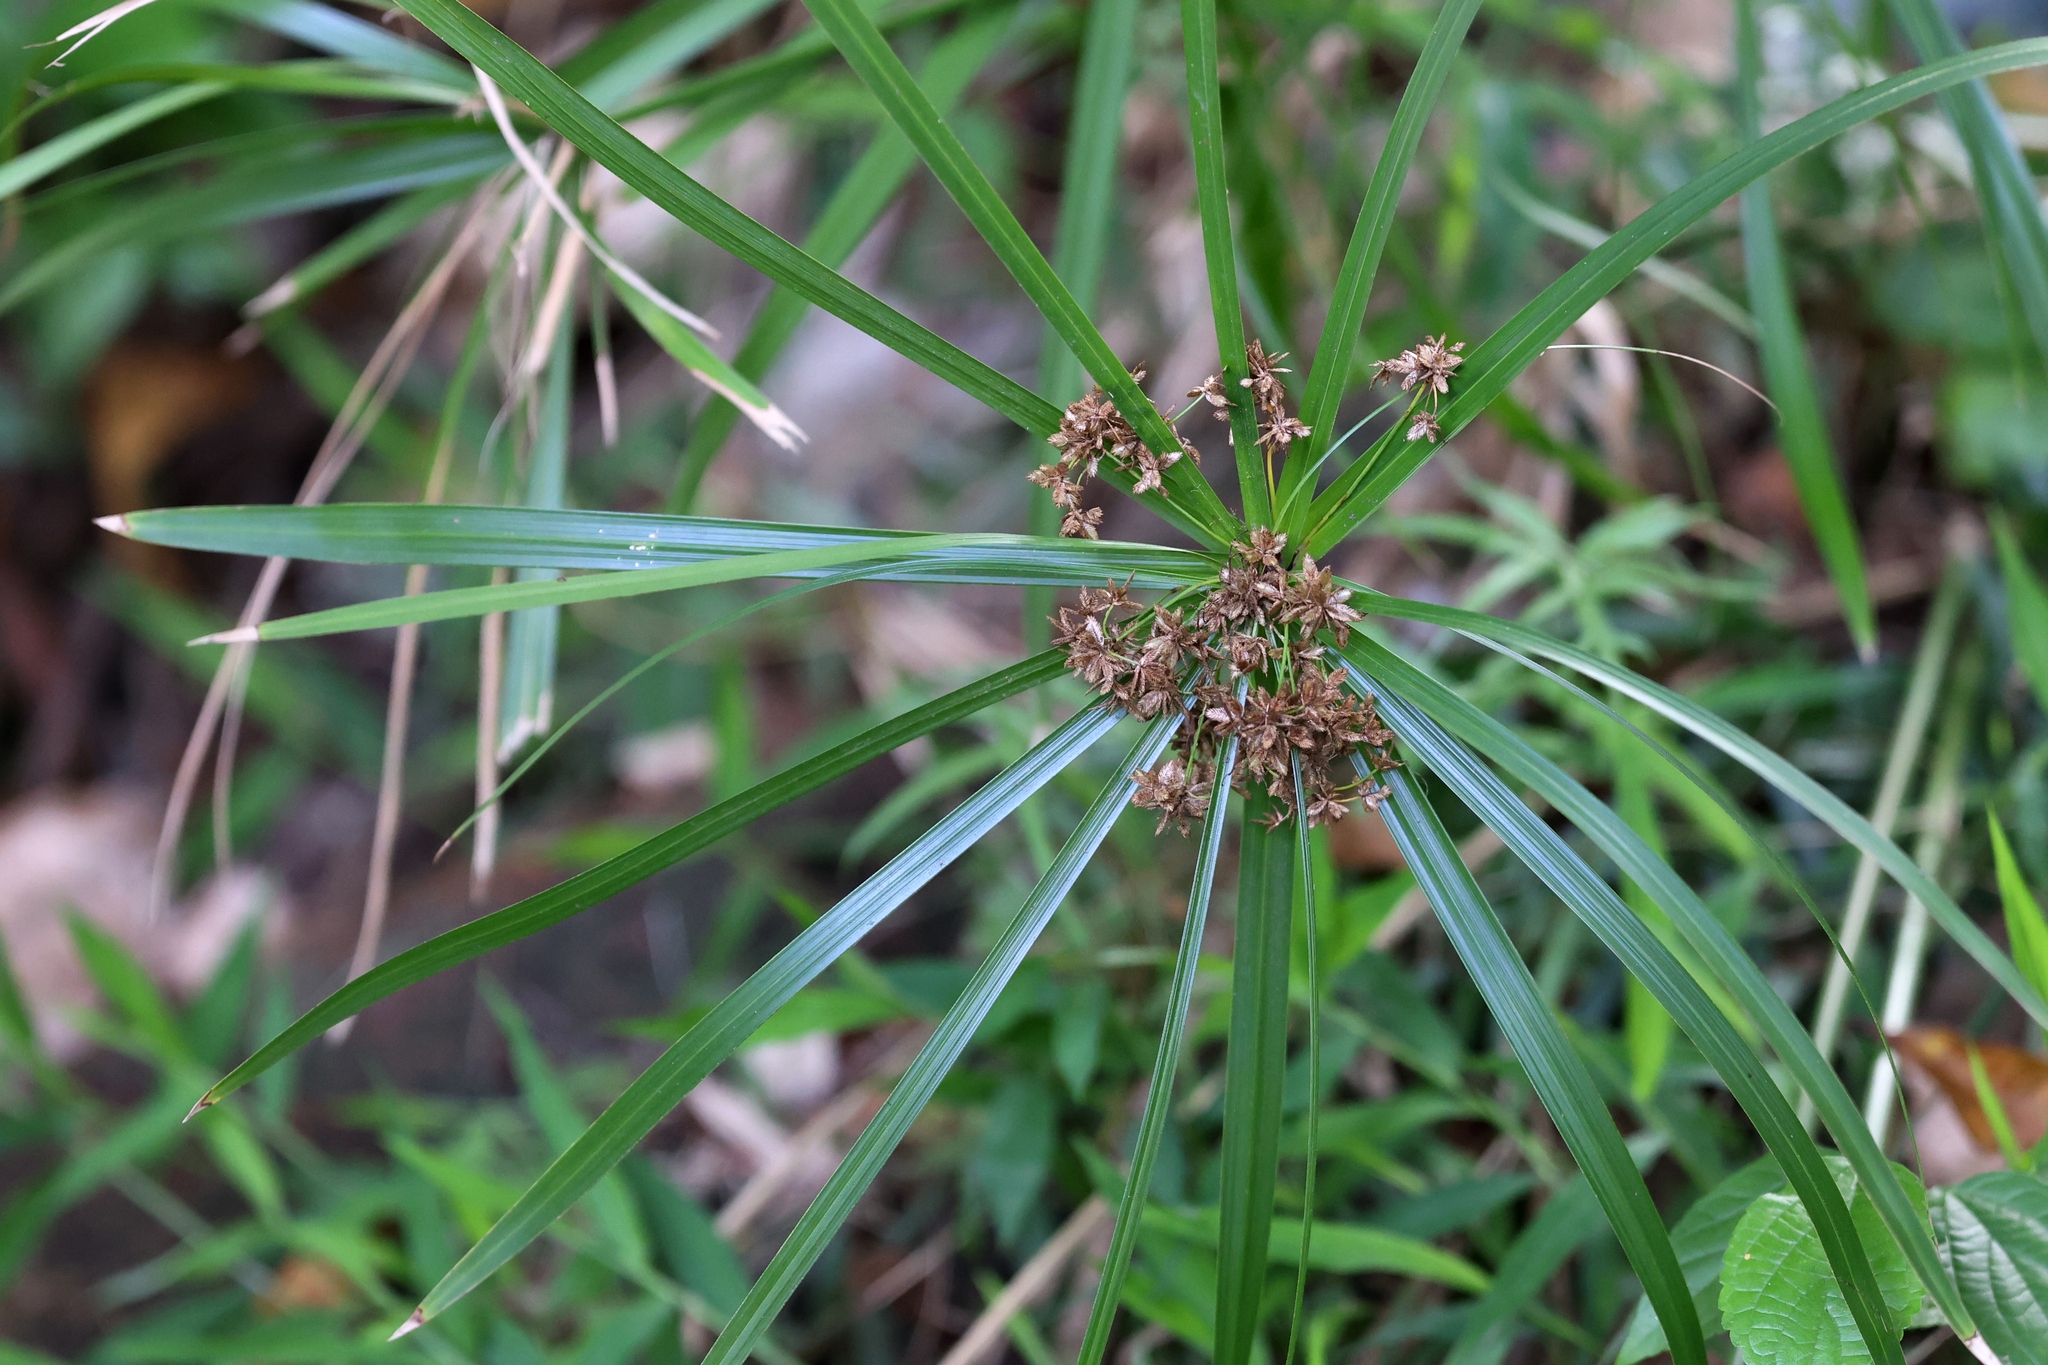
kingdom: Plantae
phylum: Tracheophyta
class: Liliopsida
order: Poales
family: Cyperaceae
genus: Cyperus
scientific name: Cyperus alternifolius
